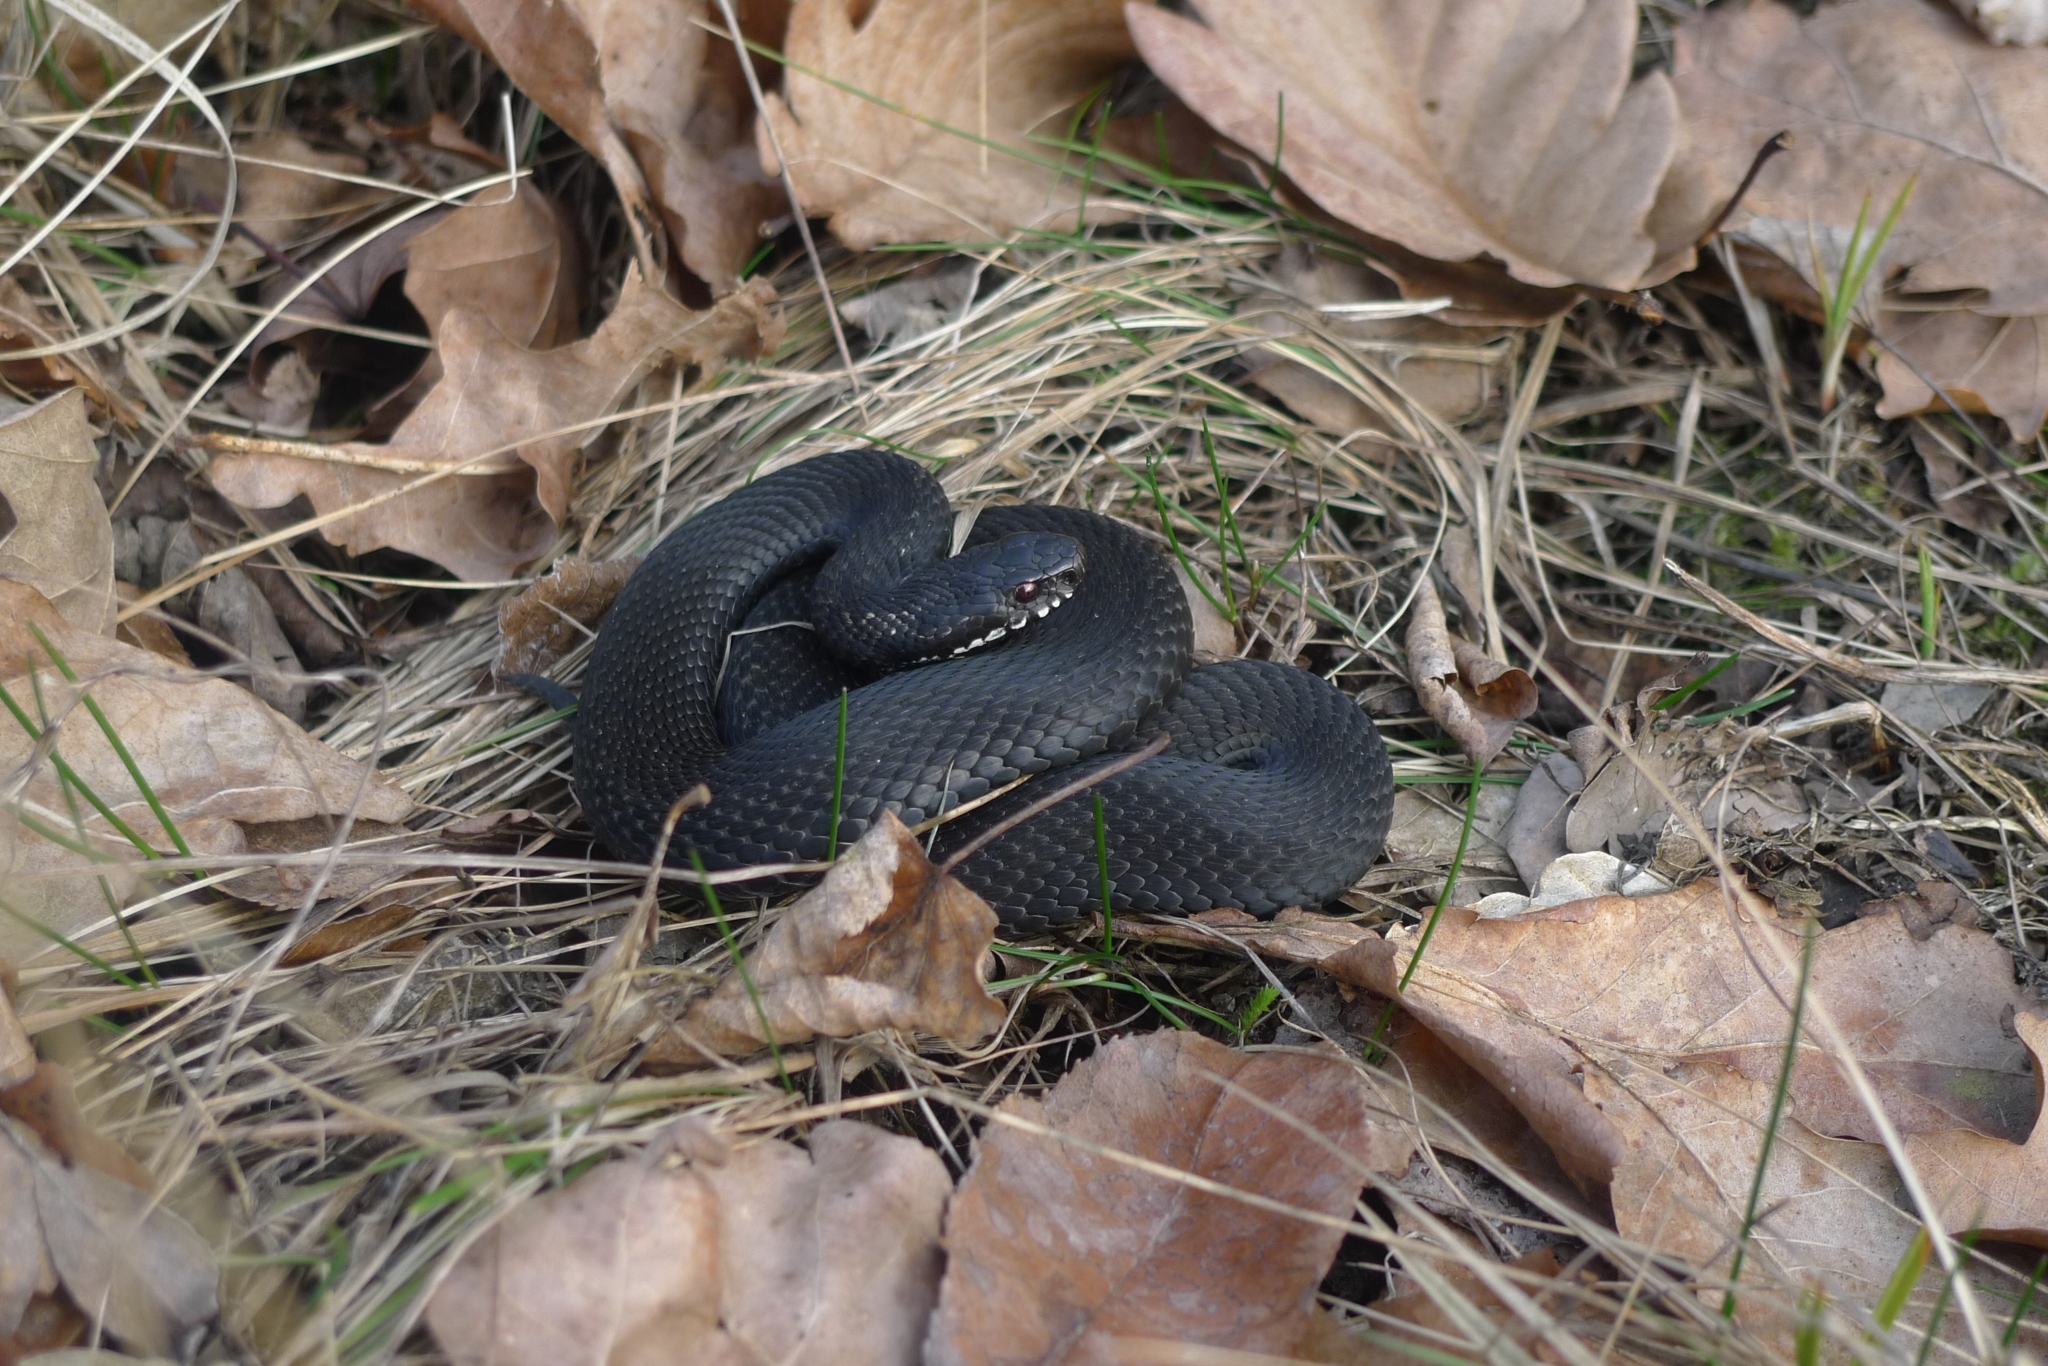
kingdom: Animalia
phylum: Chordata
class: Squamata
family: Viperidae
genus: Vipera
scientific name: Vipera berus
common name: Adder
